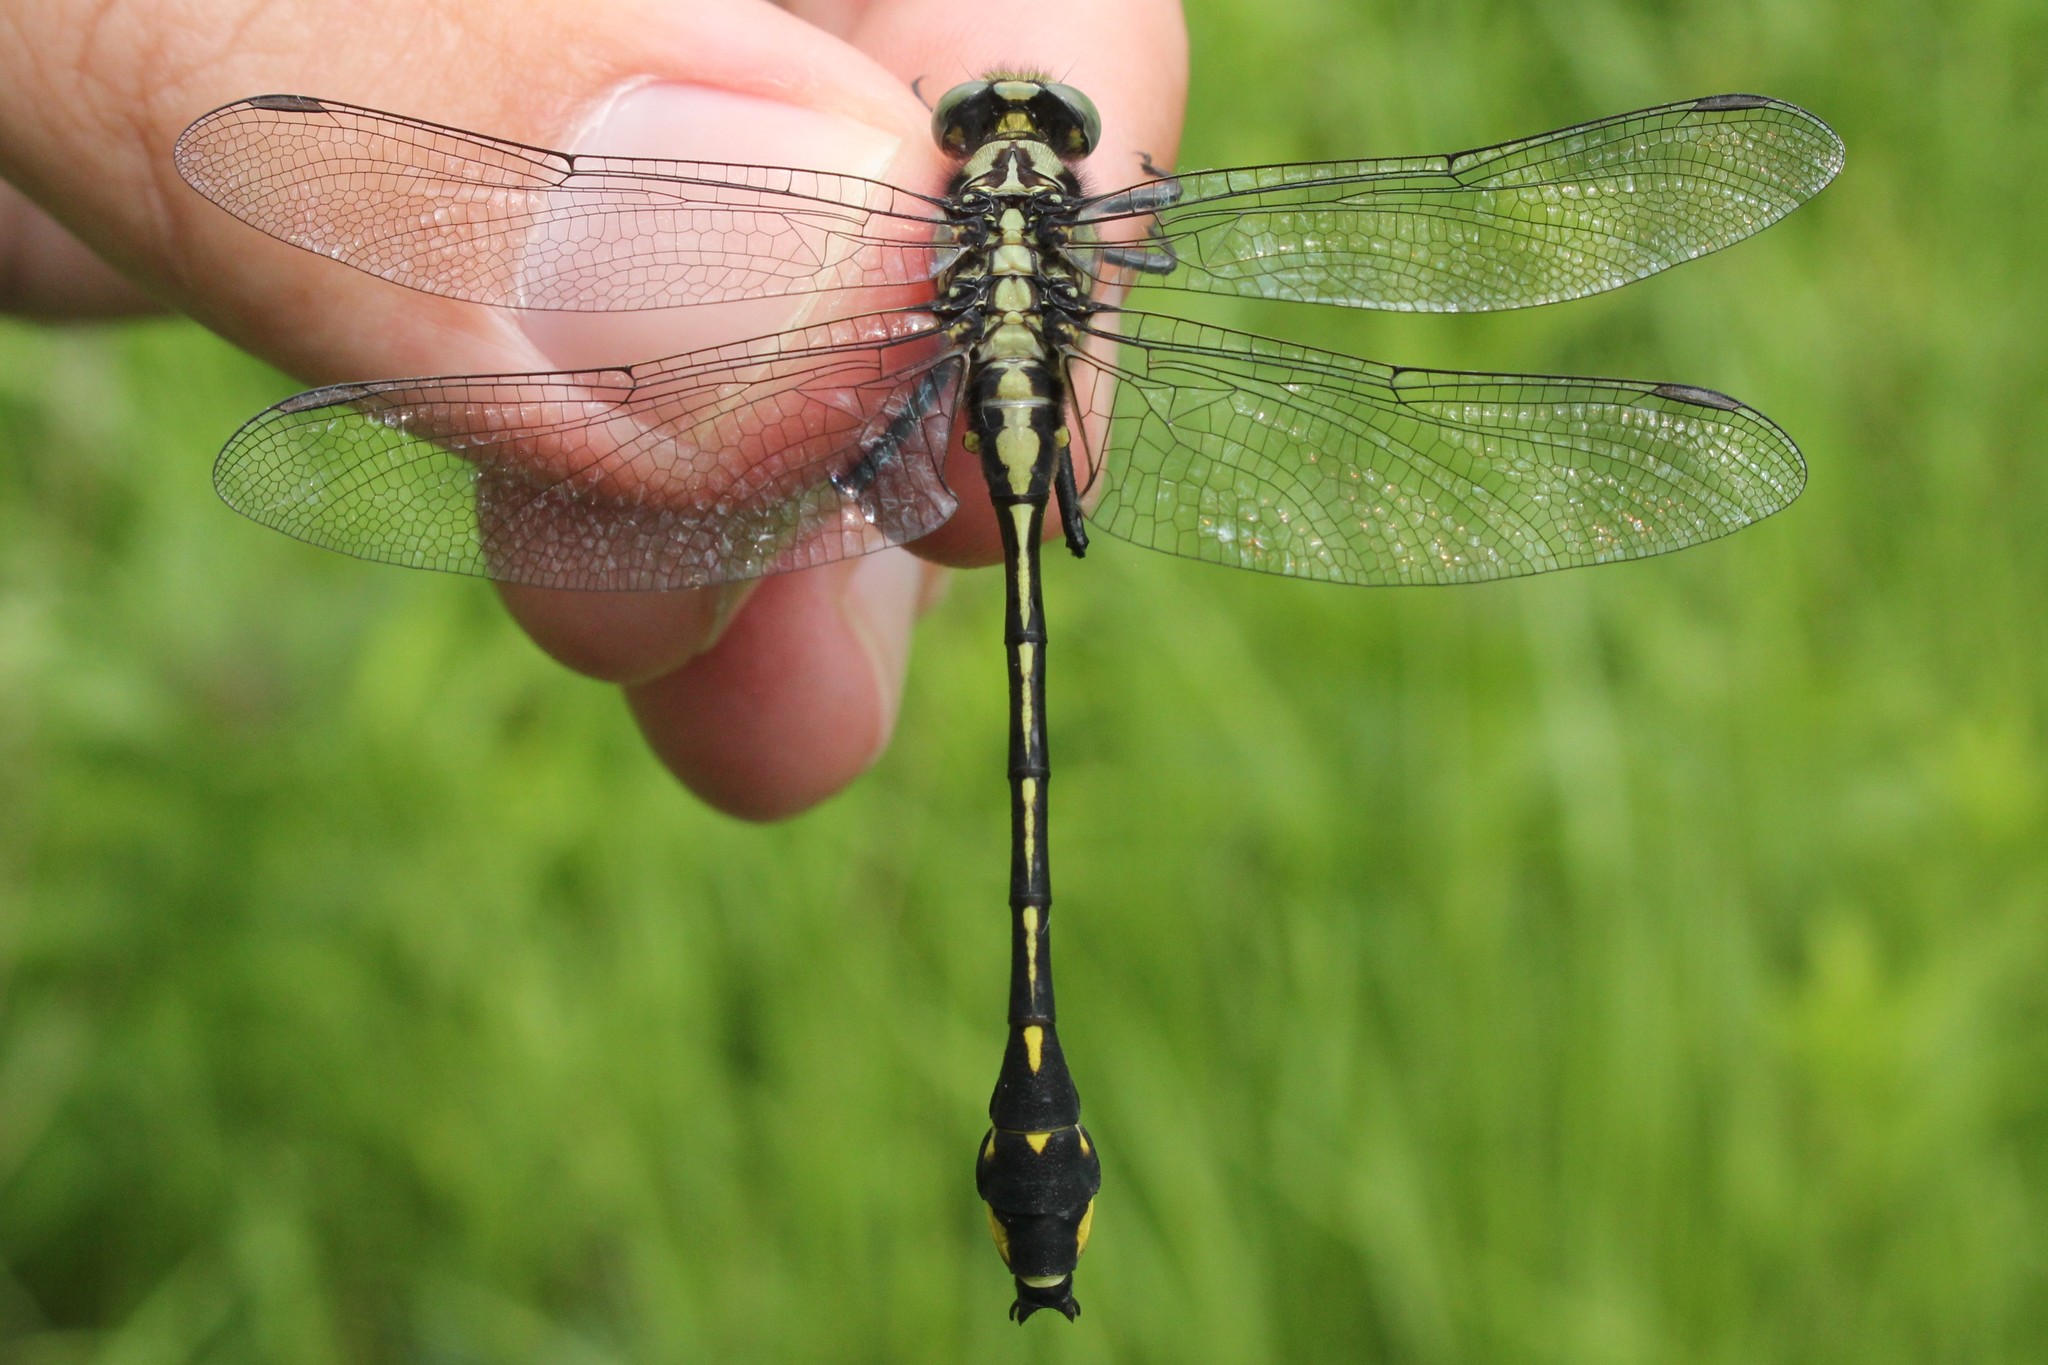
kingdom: Animalia
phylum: Arthropoda
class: Insecta
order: Odonata
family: Gomphidae
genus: Gomphurus
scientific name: Gomphurus fraternus
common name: Midland clubtail
